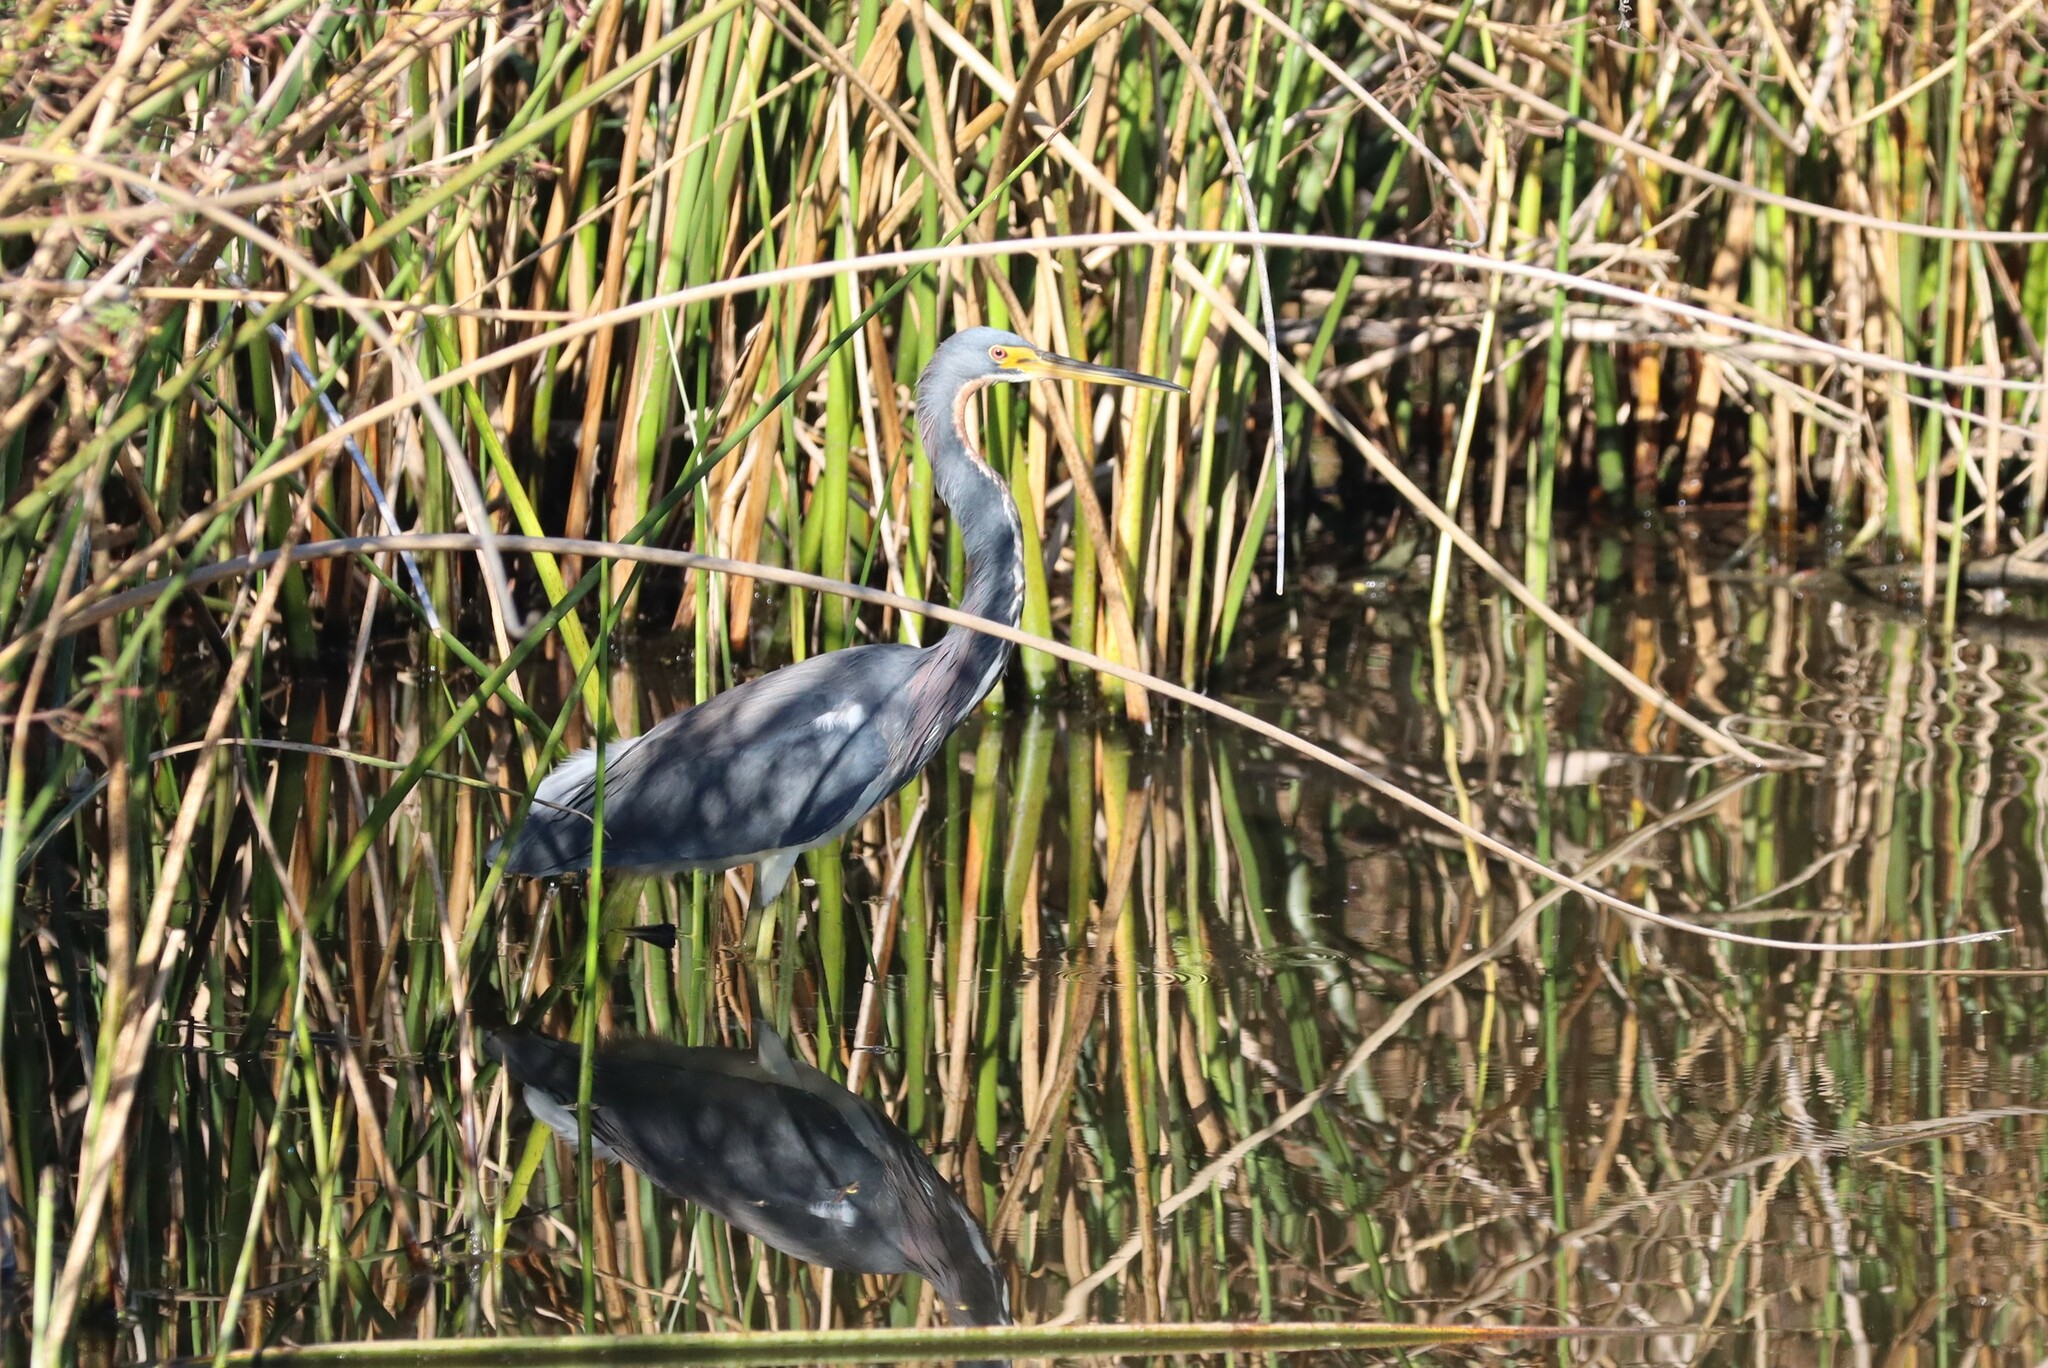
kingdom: Animalia
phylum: Chordata
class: Aves
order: Pelecaniformes
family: Ardeidae
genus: Egretta
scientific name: Egretta tricolor
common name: Tricolored heron
